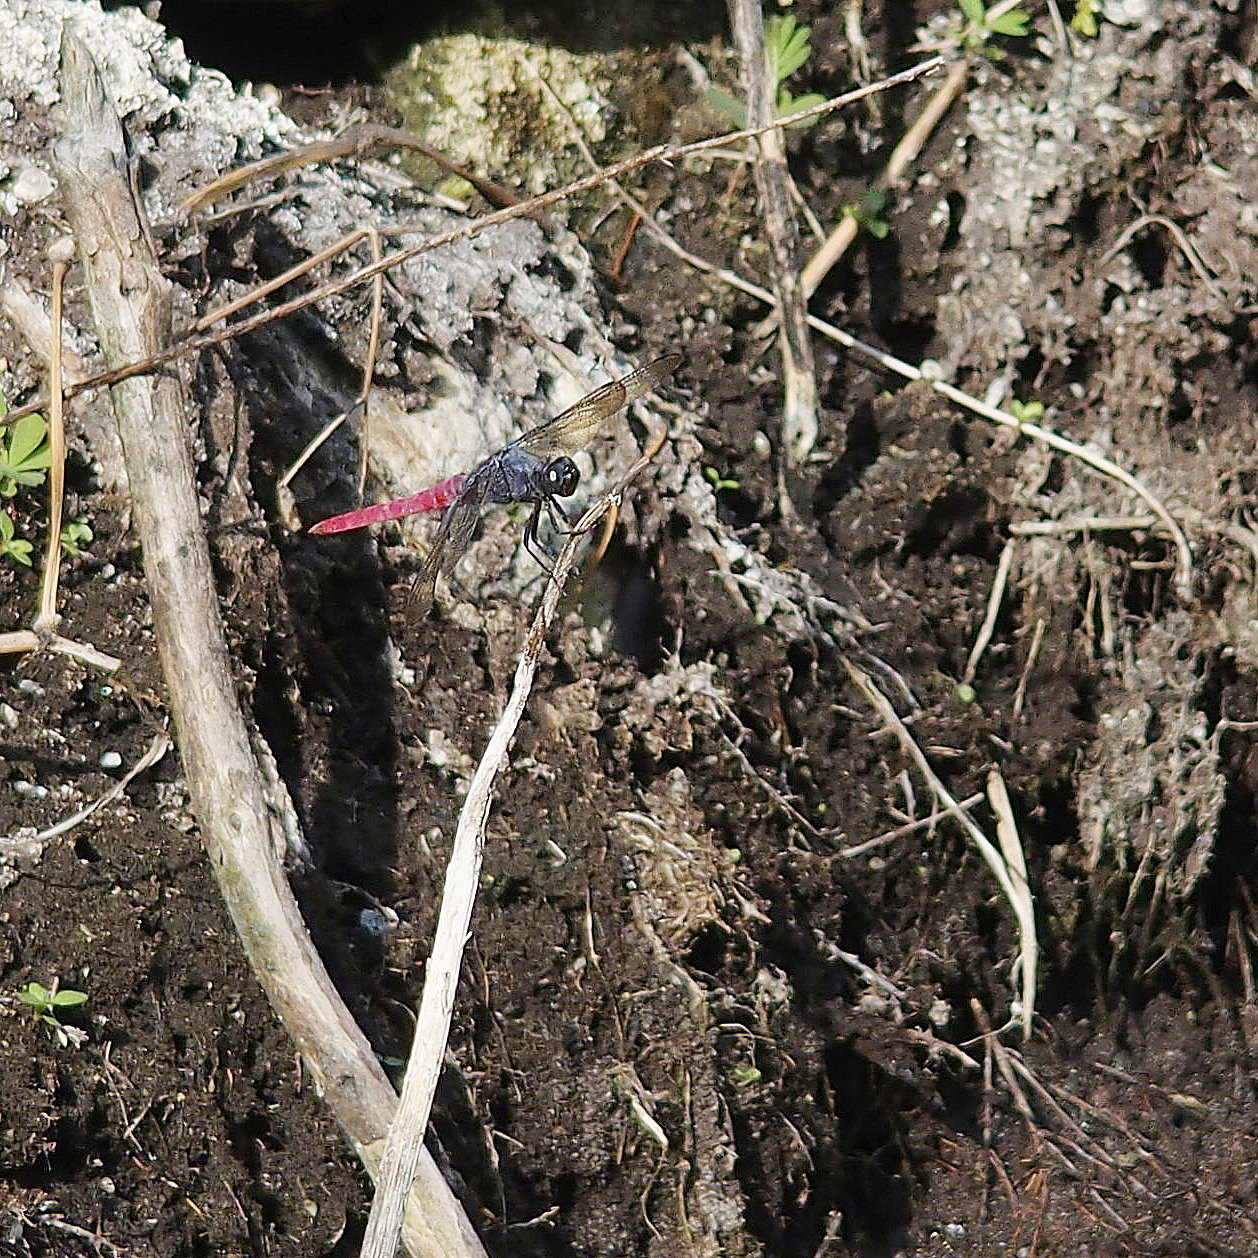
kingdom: Animalia
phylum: Arthropoda
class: Insecta
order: Odonata
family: Libellulidae
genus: Orthetrum
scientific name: Orthetrum pruinosum
